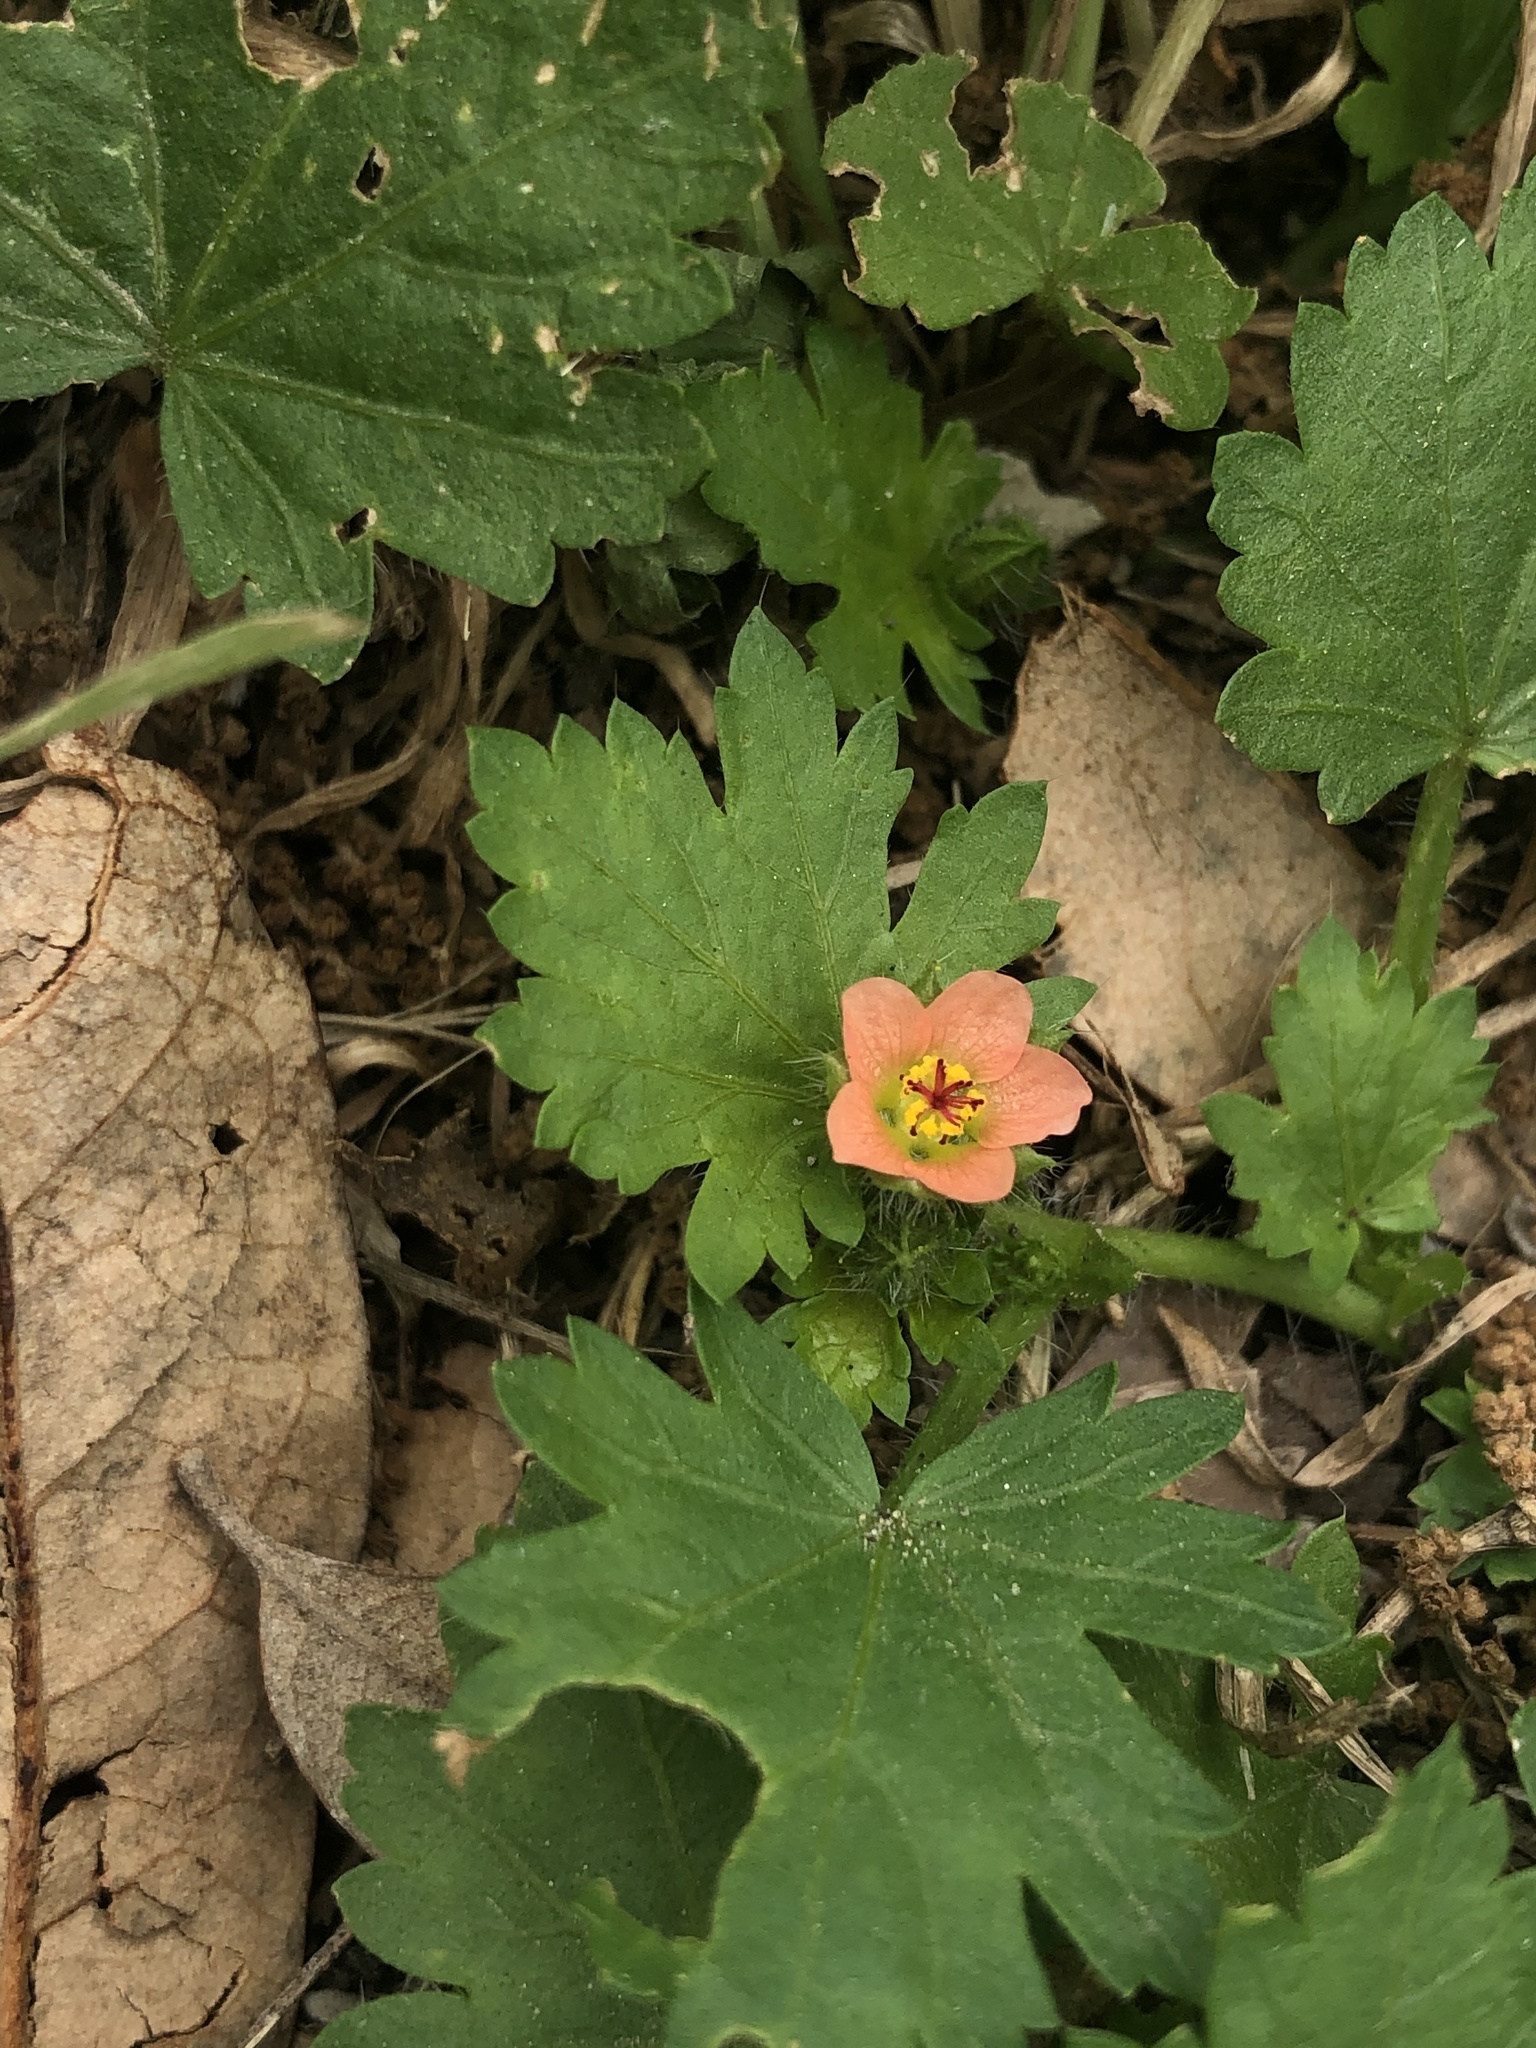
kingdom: Plantae
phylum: Tracheophyta
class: Magnoliopsida
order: Malvales
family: Malvaceae
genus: Modiola
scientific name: Modiola caroliniana
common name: Carolina bristlemallow
